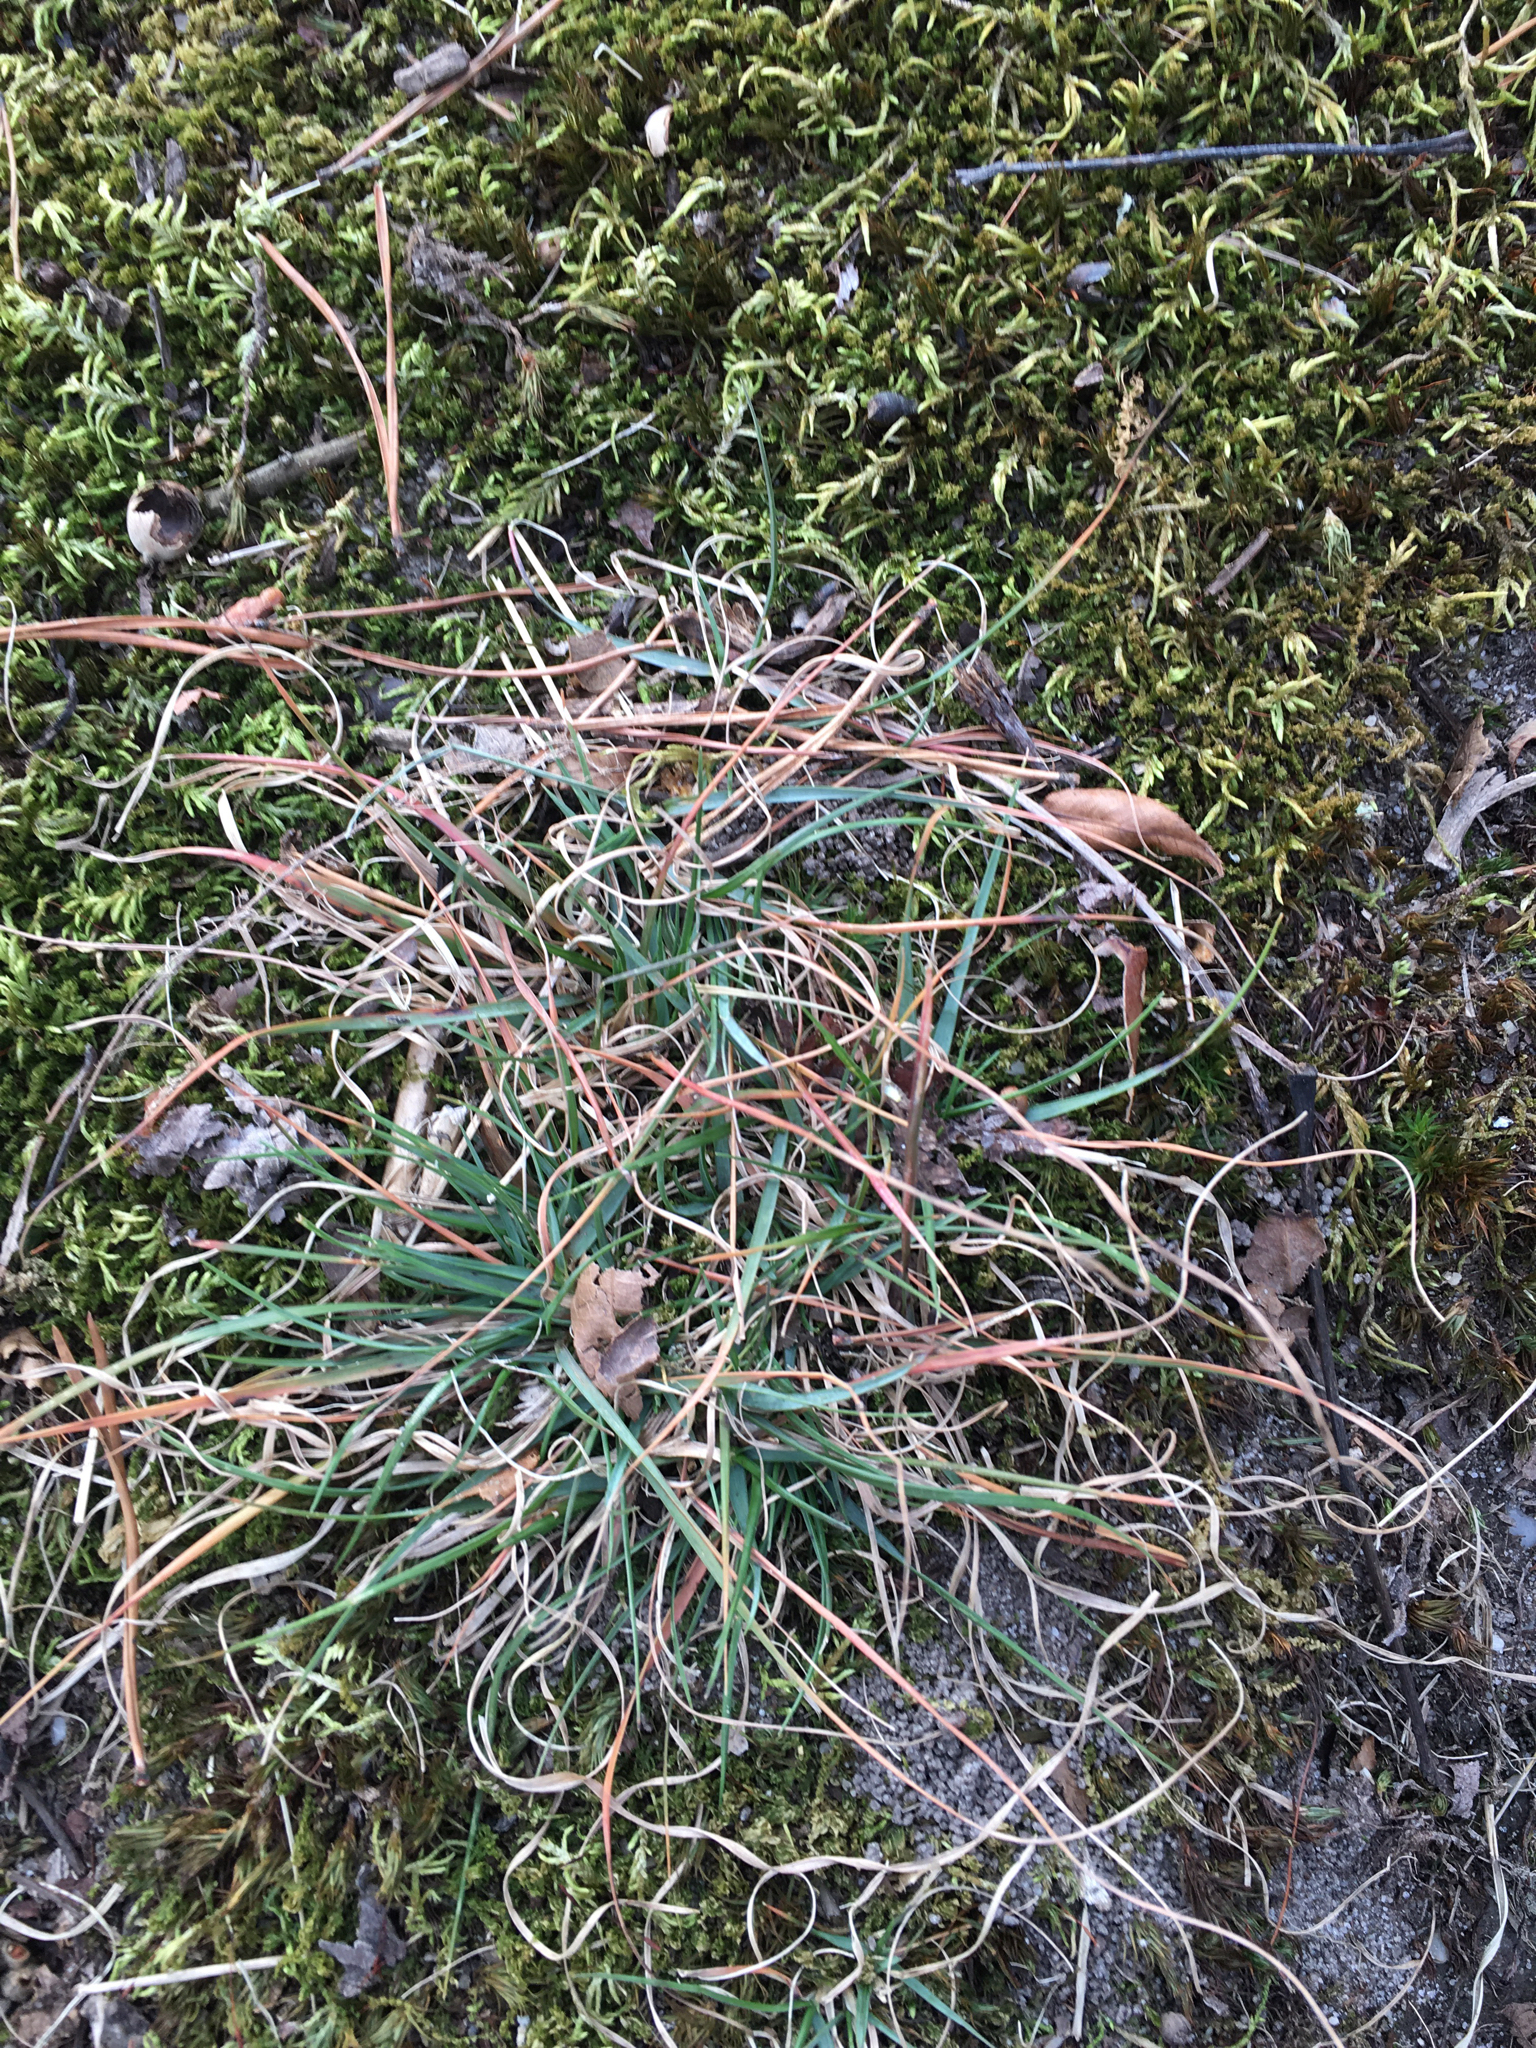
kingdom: Plantae
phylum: Tracheophyta
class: Liliopsida
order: Poales
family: Poaceae
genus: Danthonia
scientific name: Danthonia spicata
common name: Common wild oatgrass
